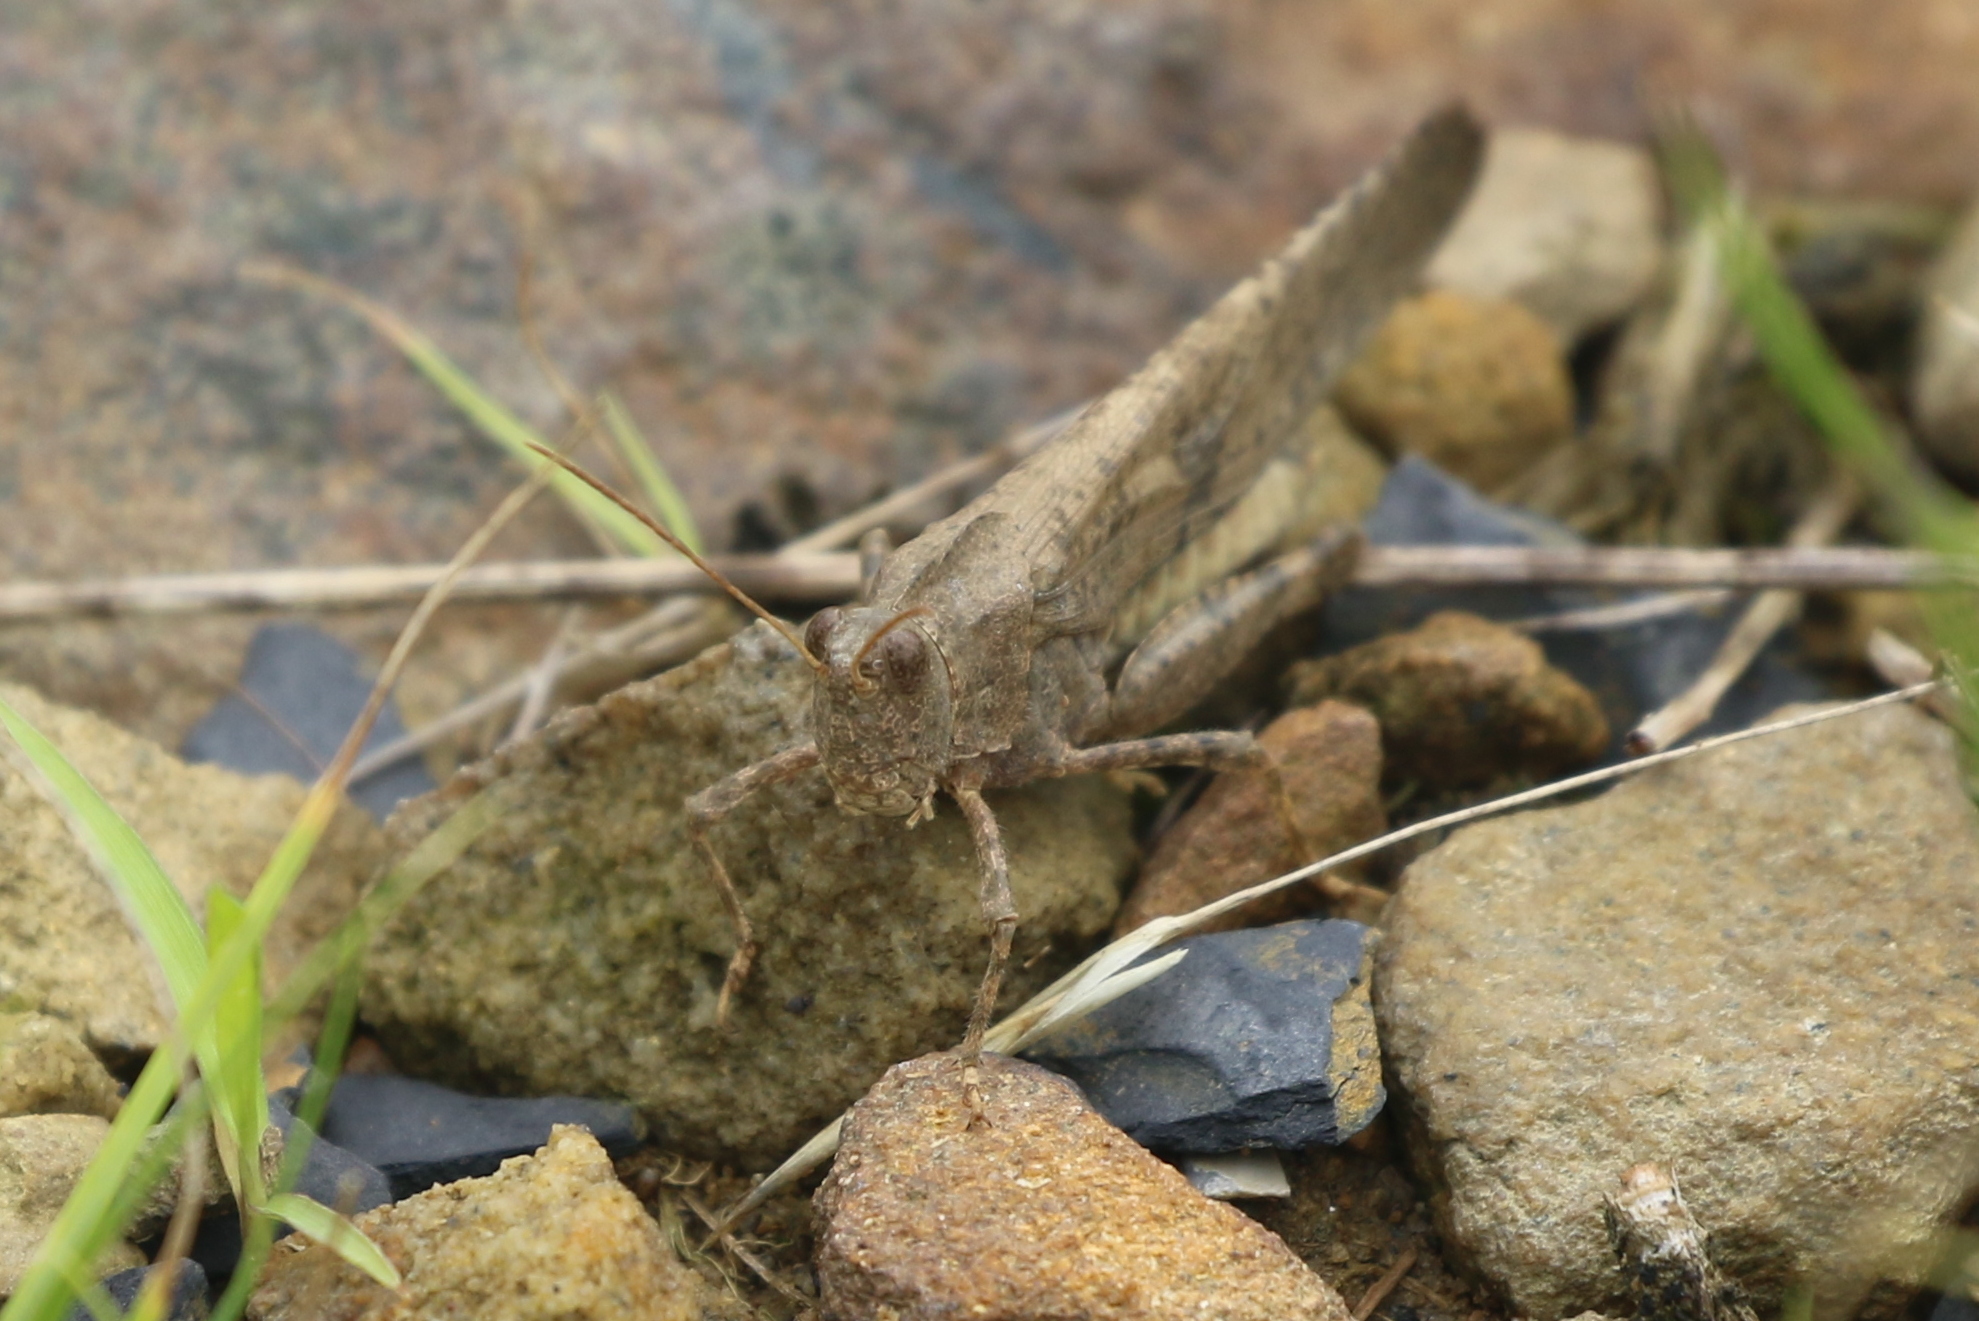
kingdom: Animalia
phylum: Arthropoda
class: Insecta
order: Orthoptera
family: Acrididae
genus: Dissosteira
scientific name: Dissosteira carolina
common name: Carolina grasshopper
